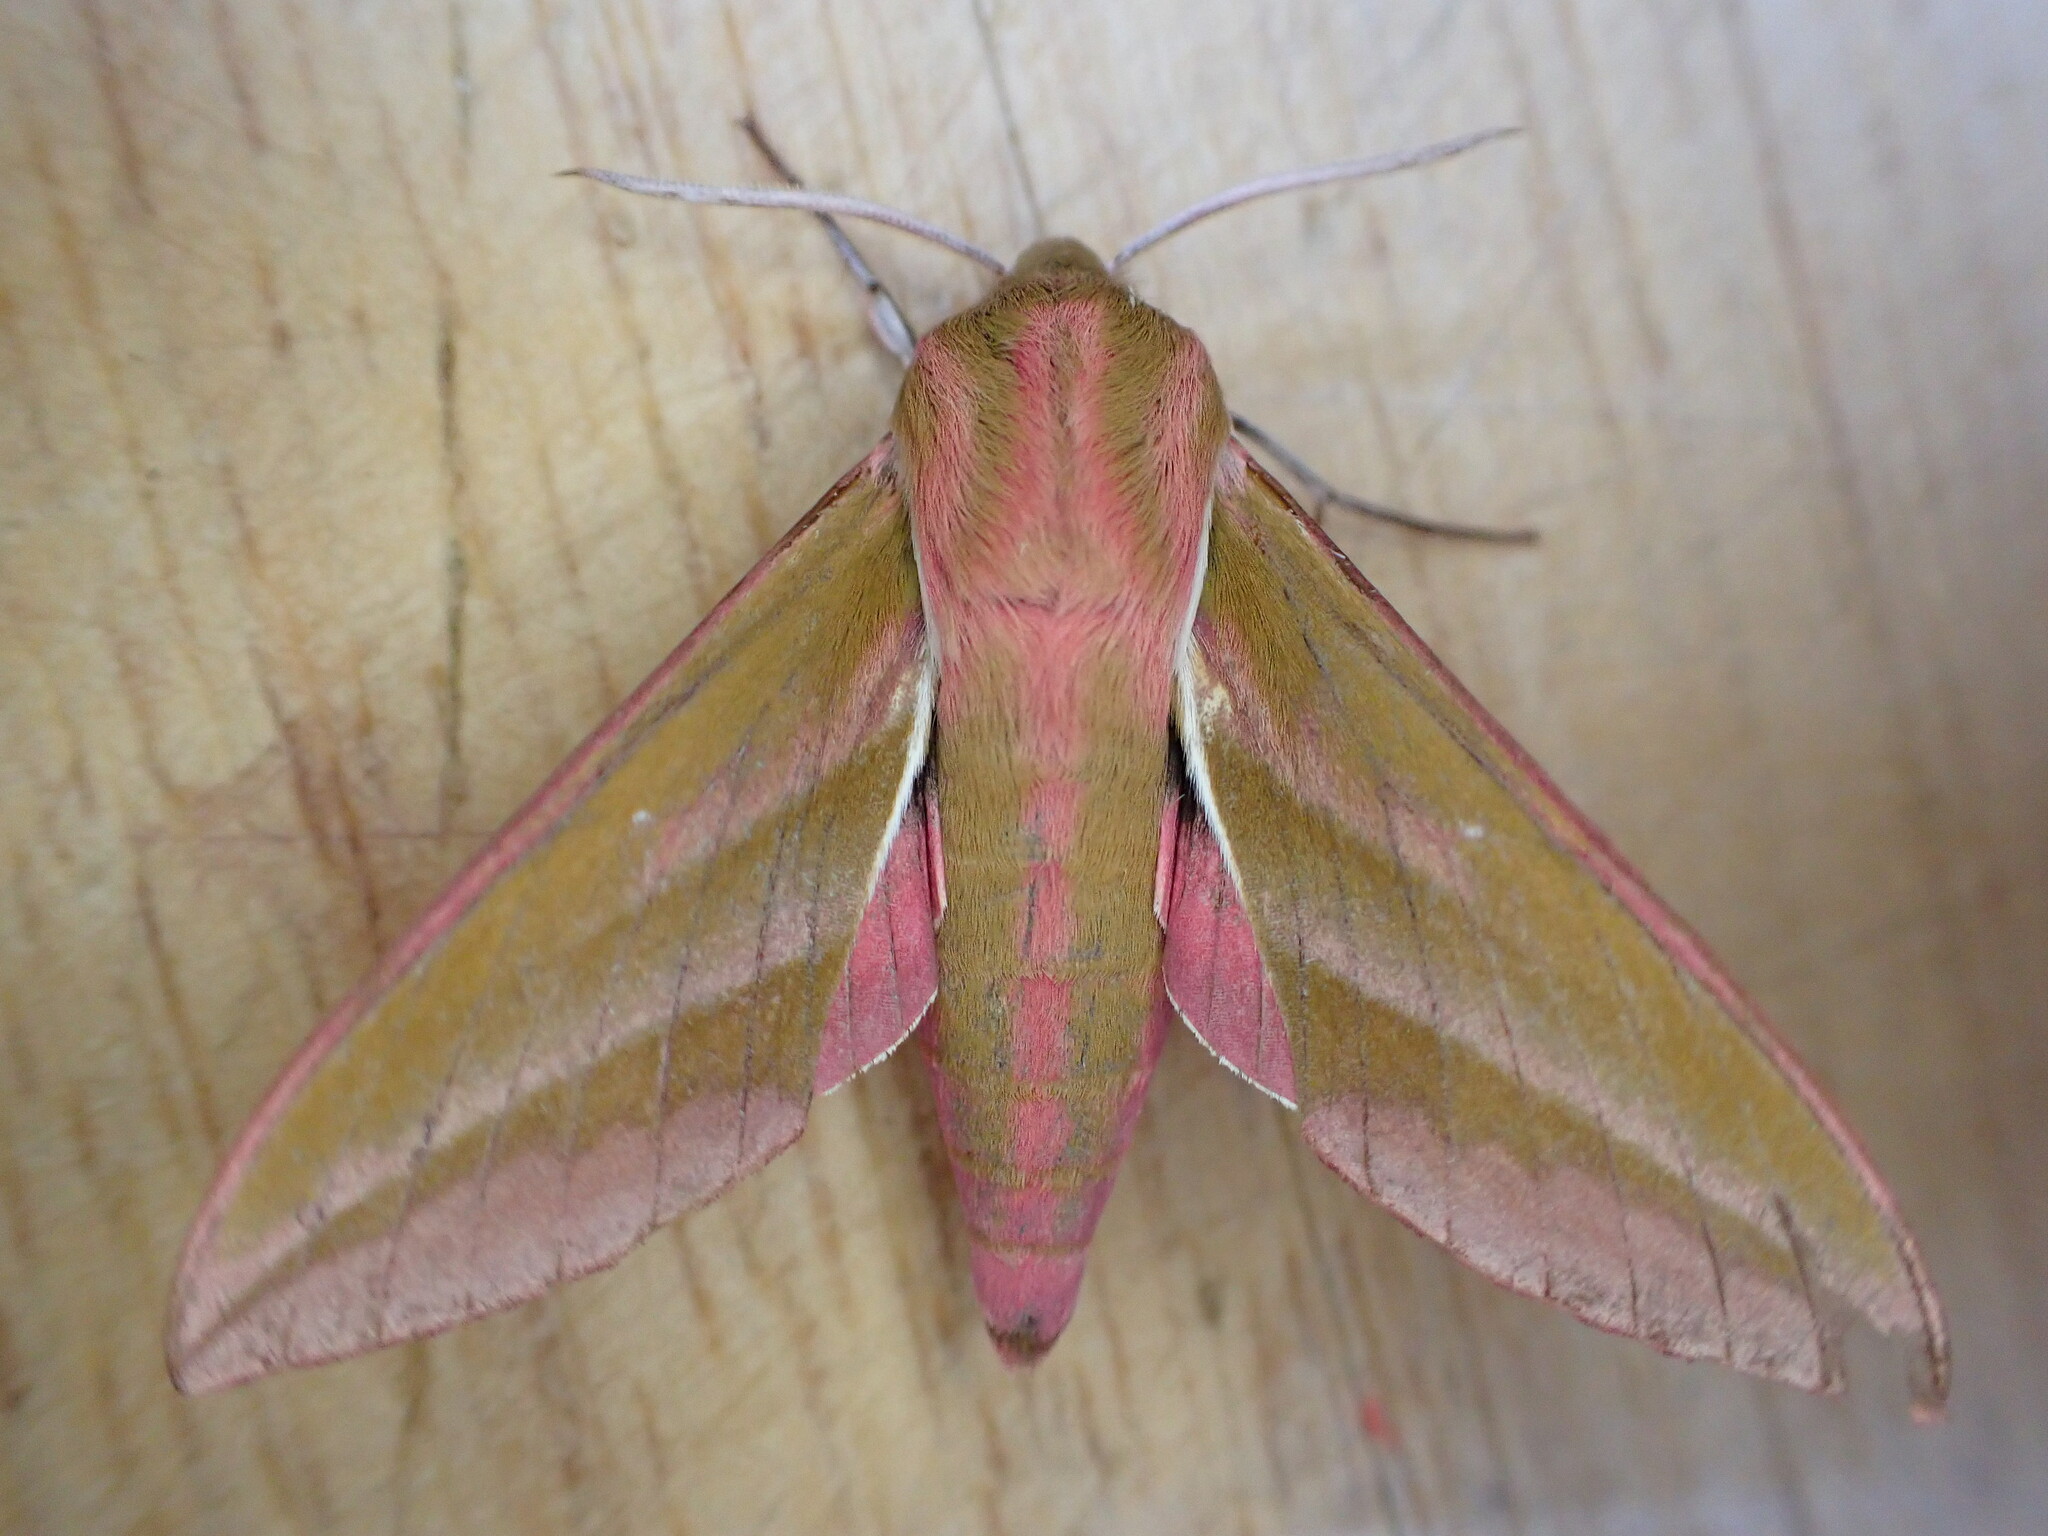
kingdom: Animalia
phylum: Arthropoda
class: Insecta
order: Lepidoptera
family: Sphingidae
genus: Deilephila
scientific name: Deilephila elpenor
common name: Elephant hawk-moth
